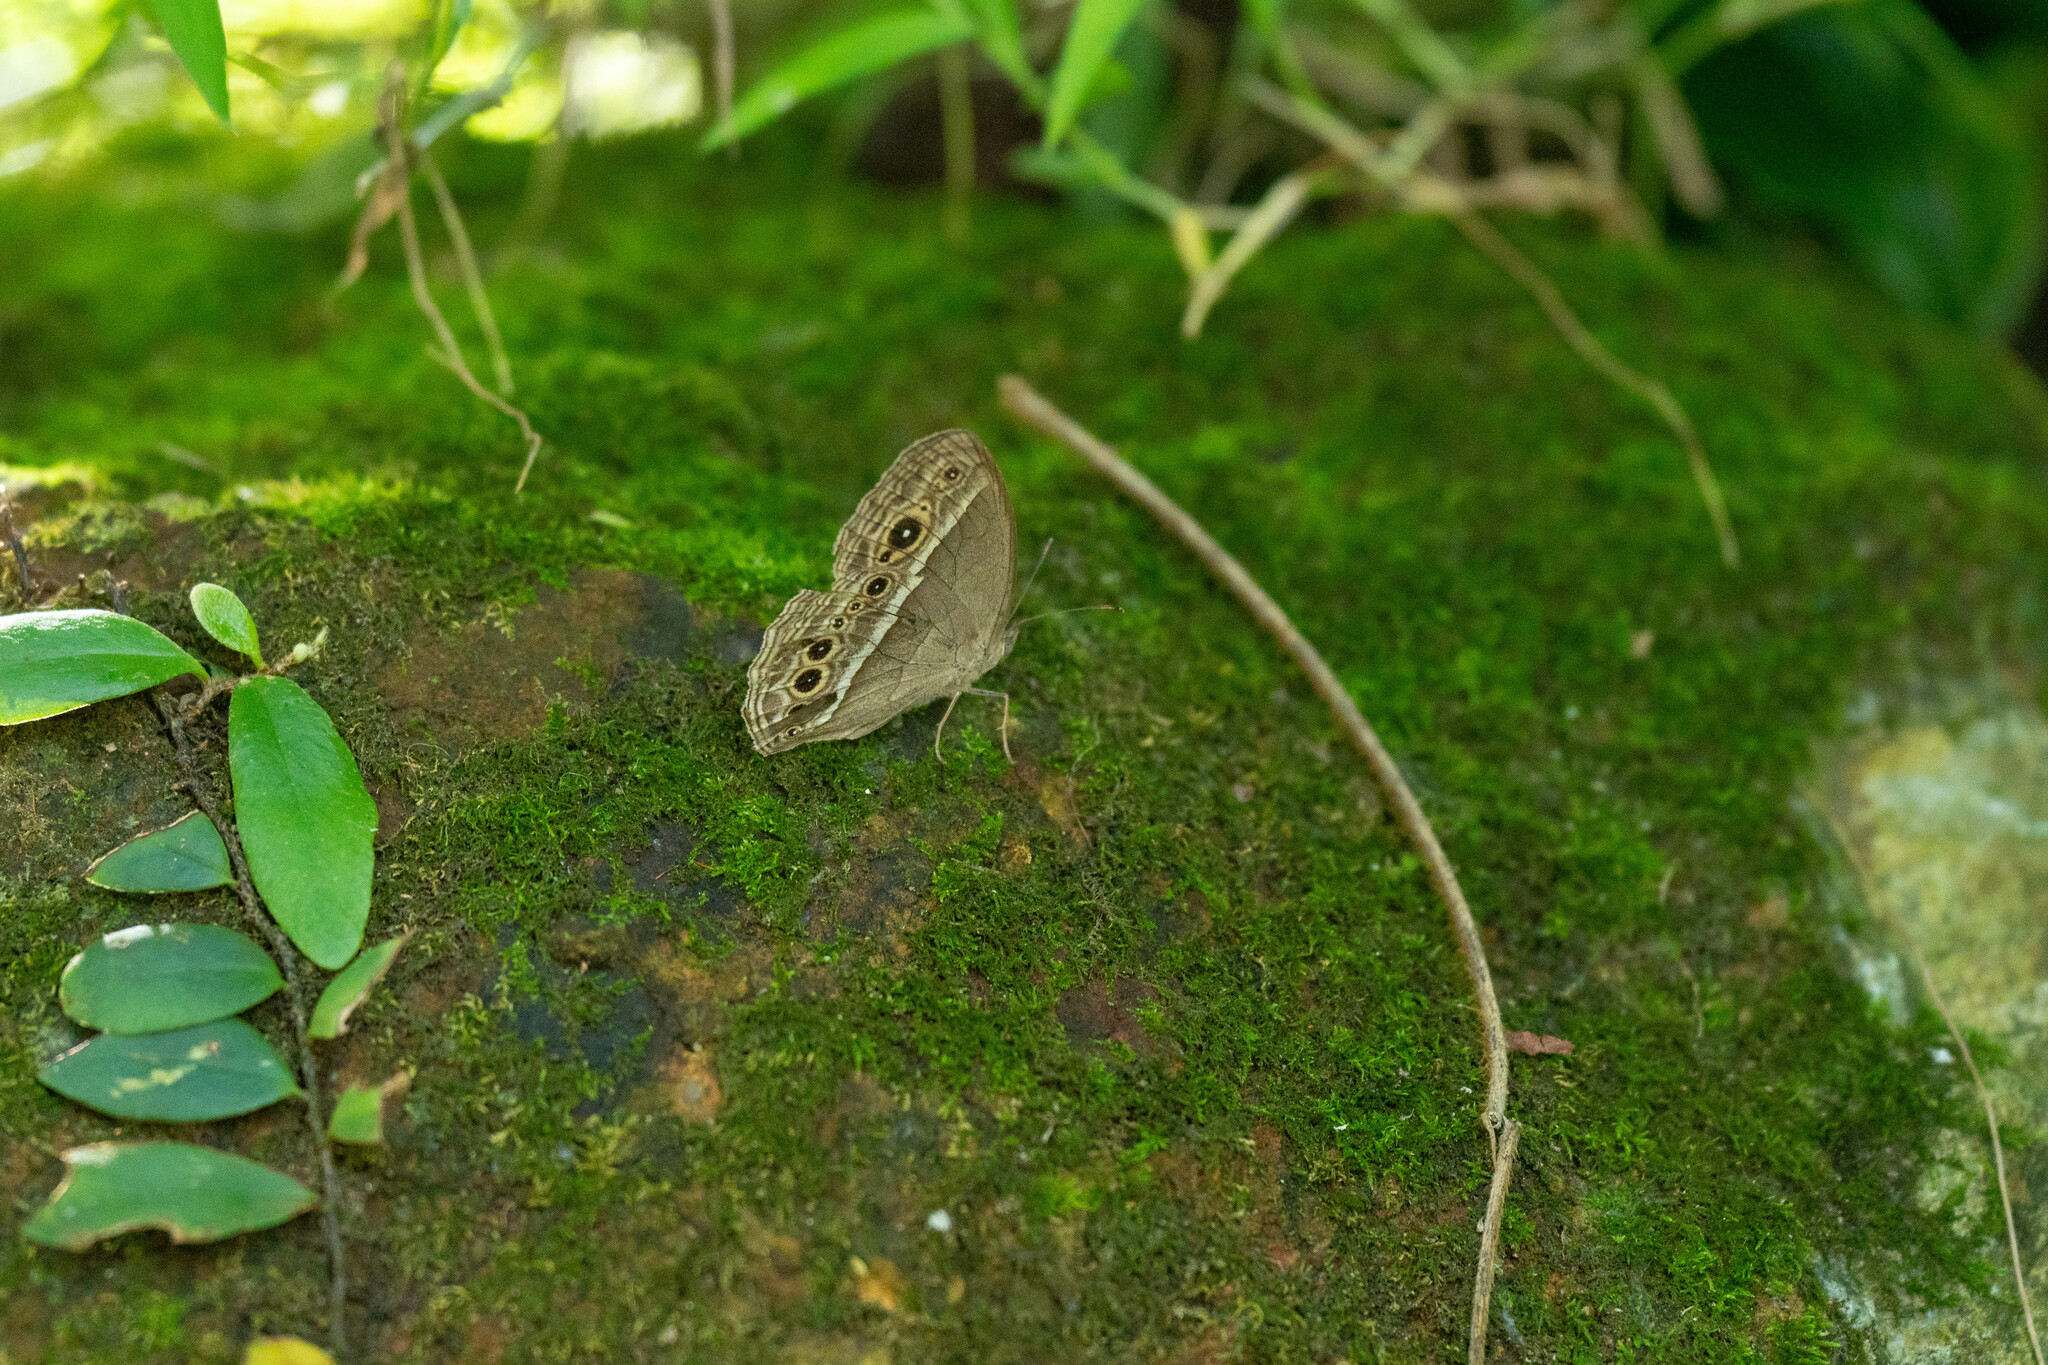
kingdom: Animalia
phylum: Arthropoda
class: Insecta
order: Lepidoptera
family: Nymphalidae
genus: Mycalesis
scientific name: Mycalesis mineus
